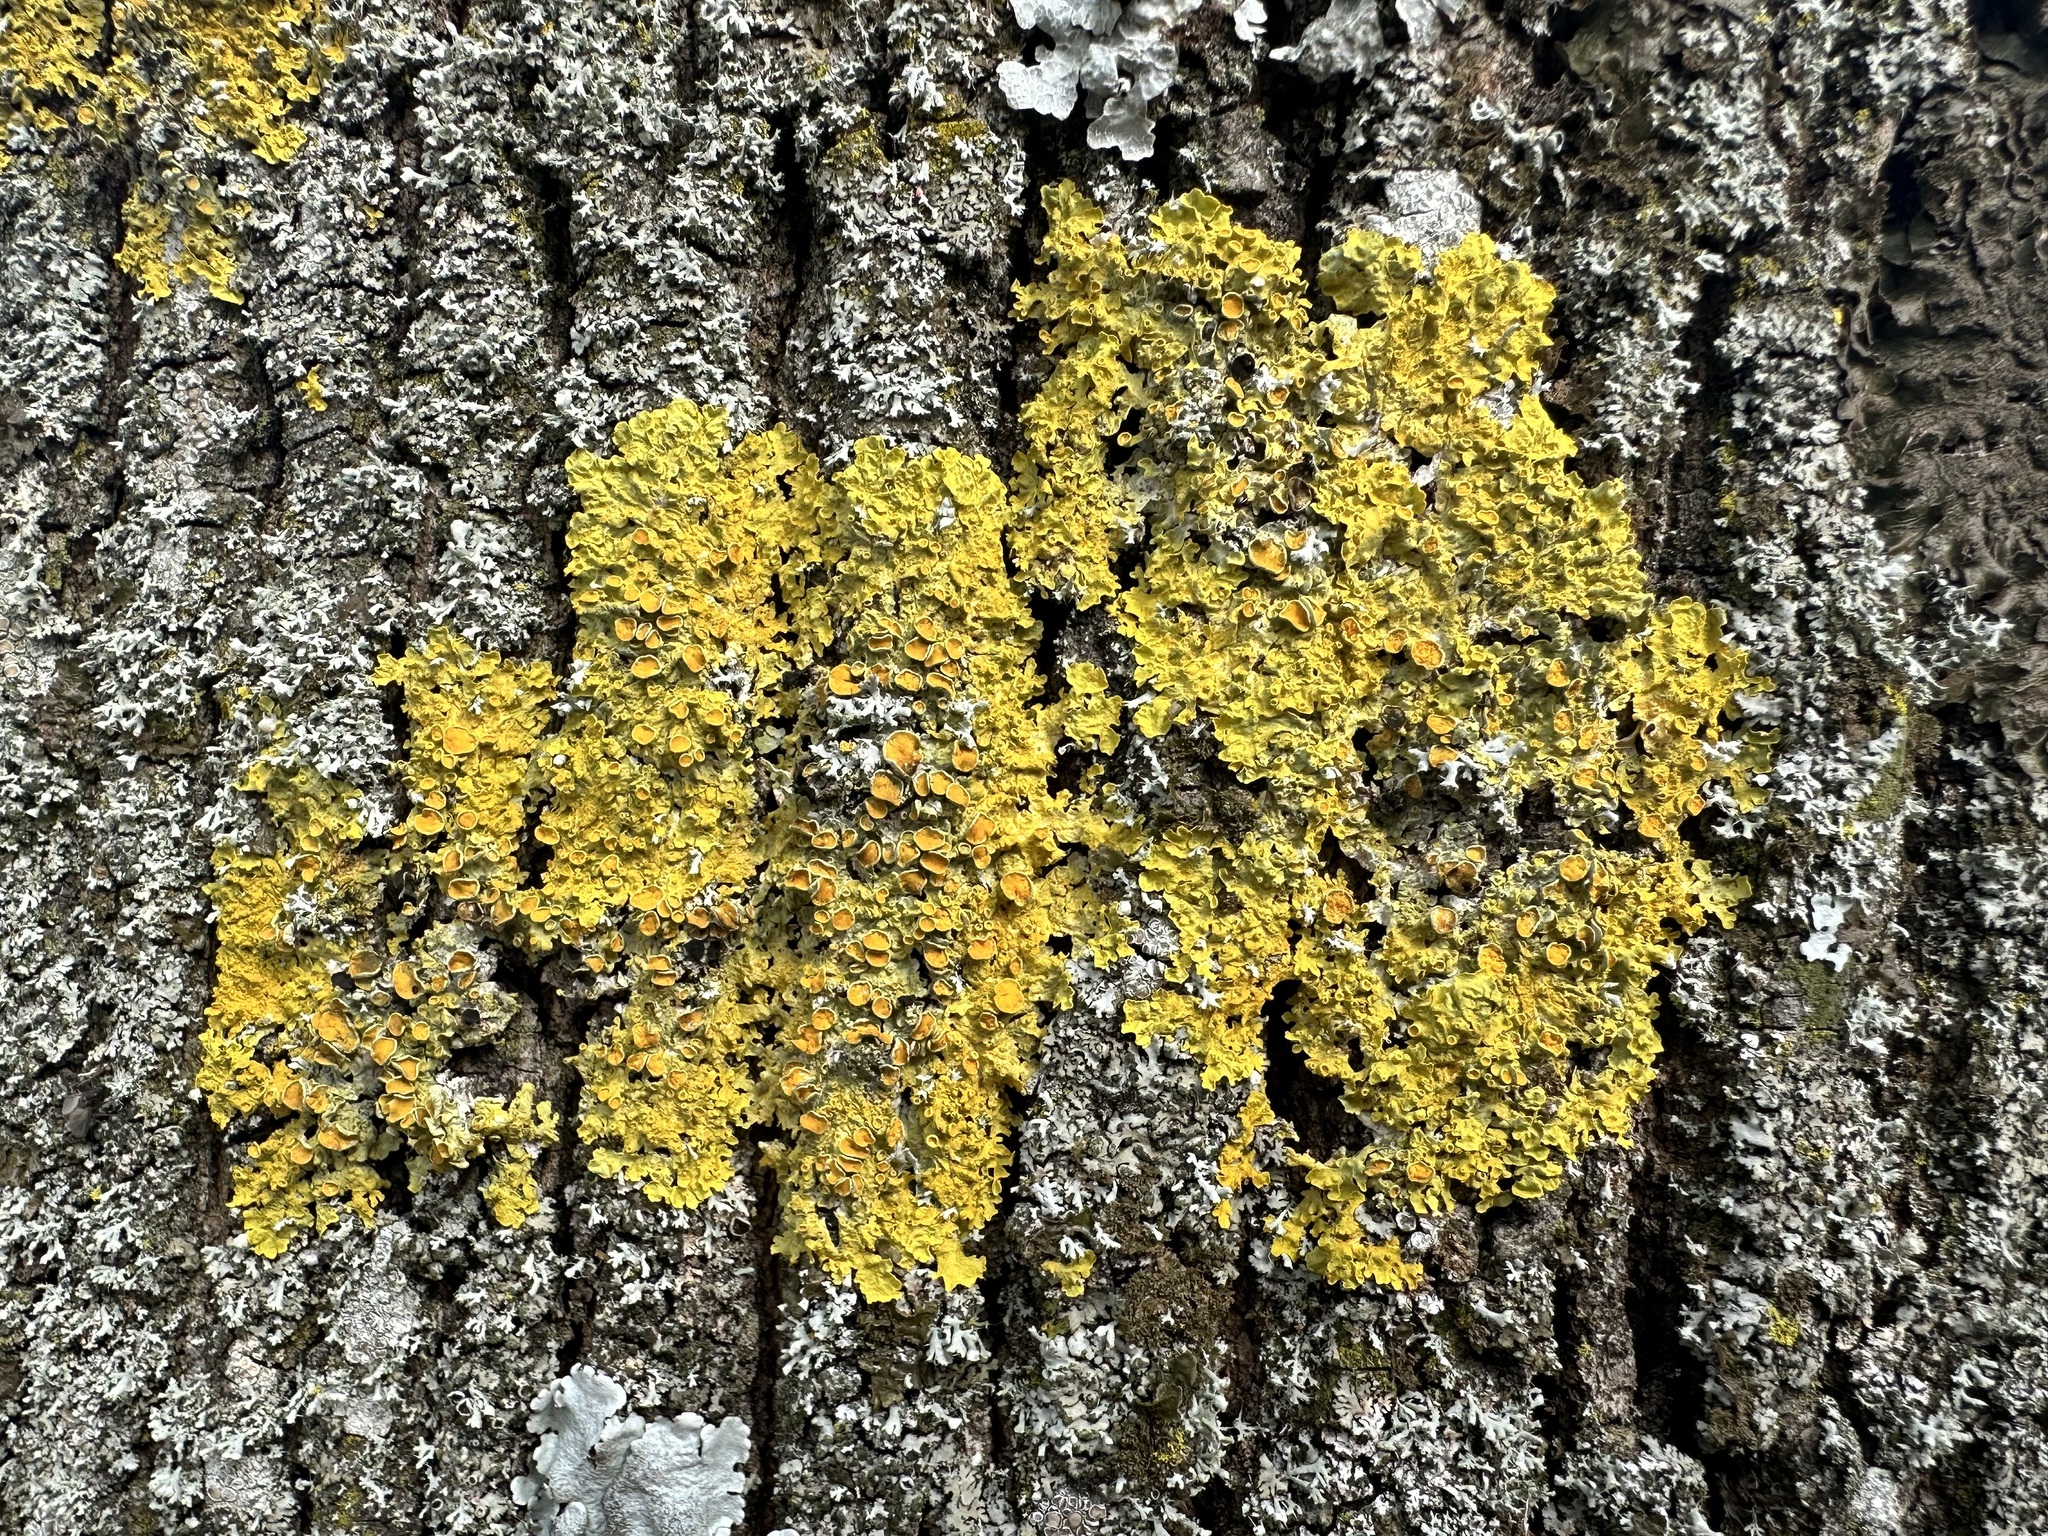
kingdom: Fungi
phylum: Ascomycota
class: Lecanoromycetes
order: Teloschistales
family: Teloschistaceae
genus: Xanthoria
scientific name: Xanthoria parietina
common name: Common orange lichen
